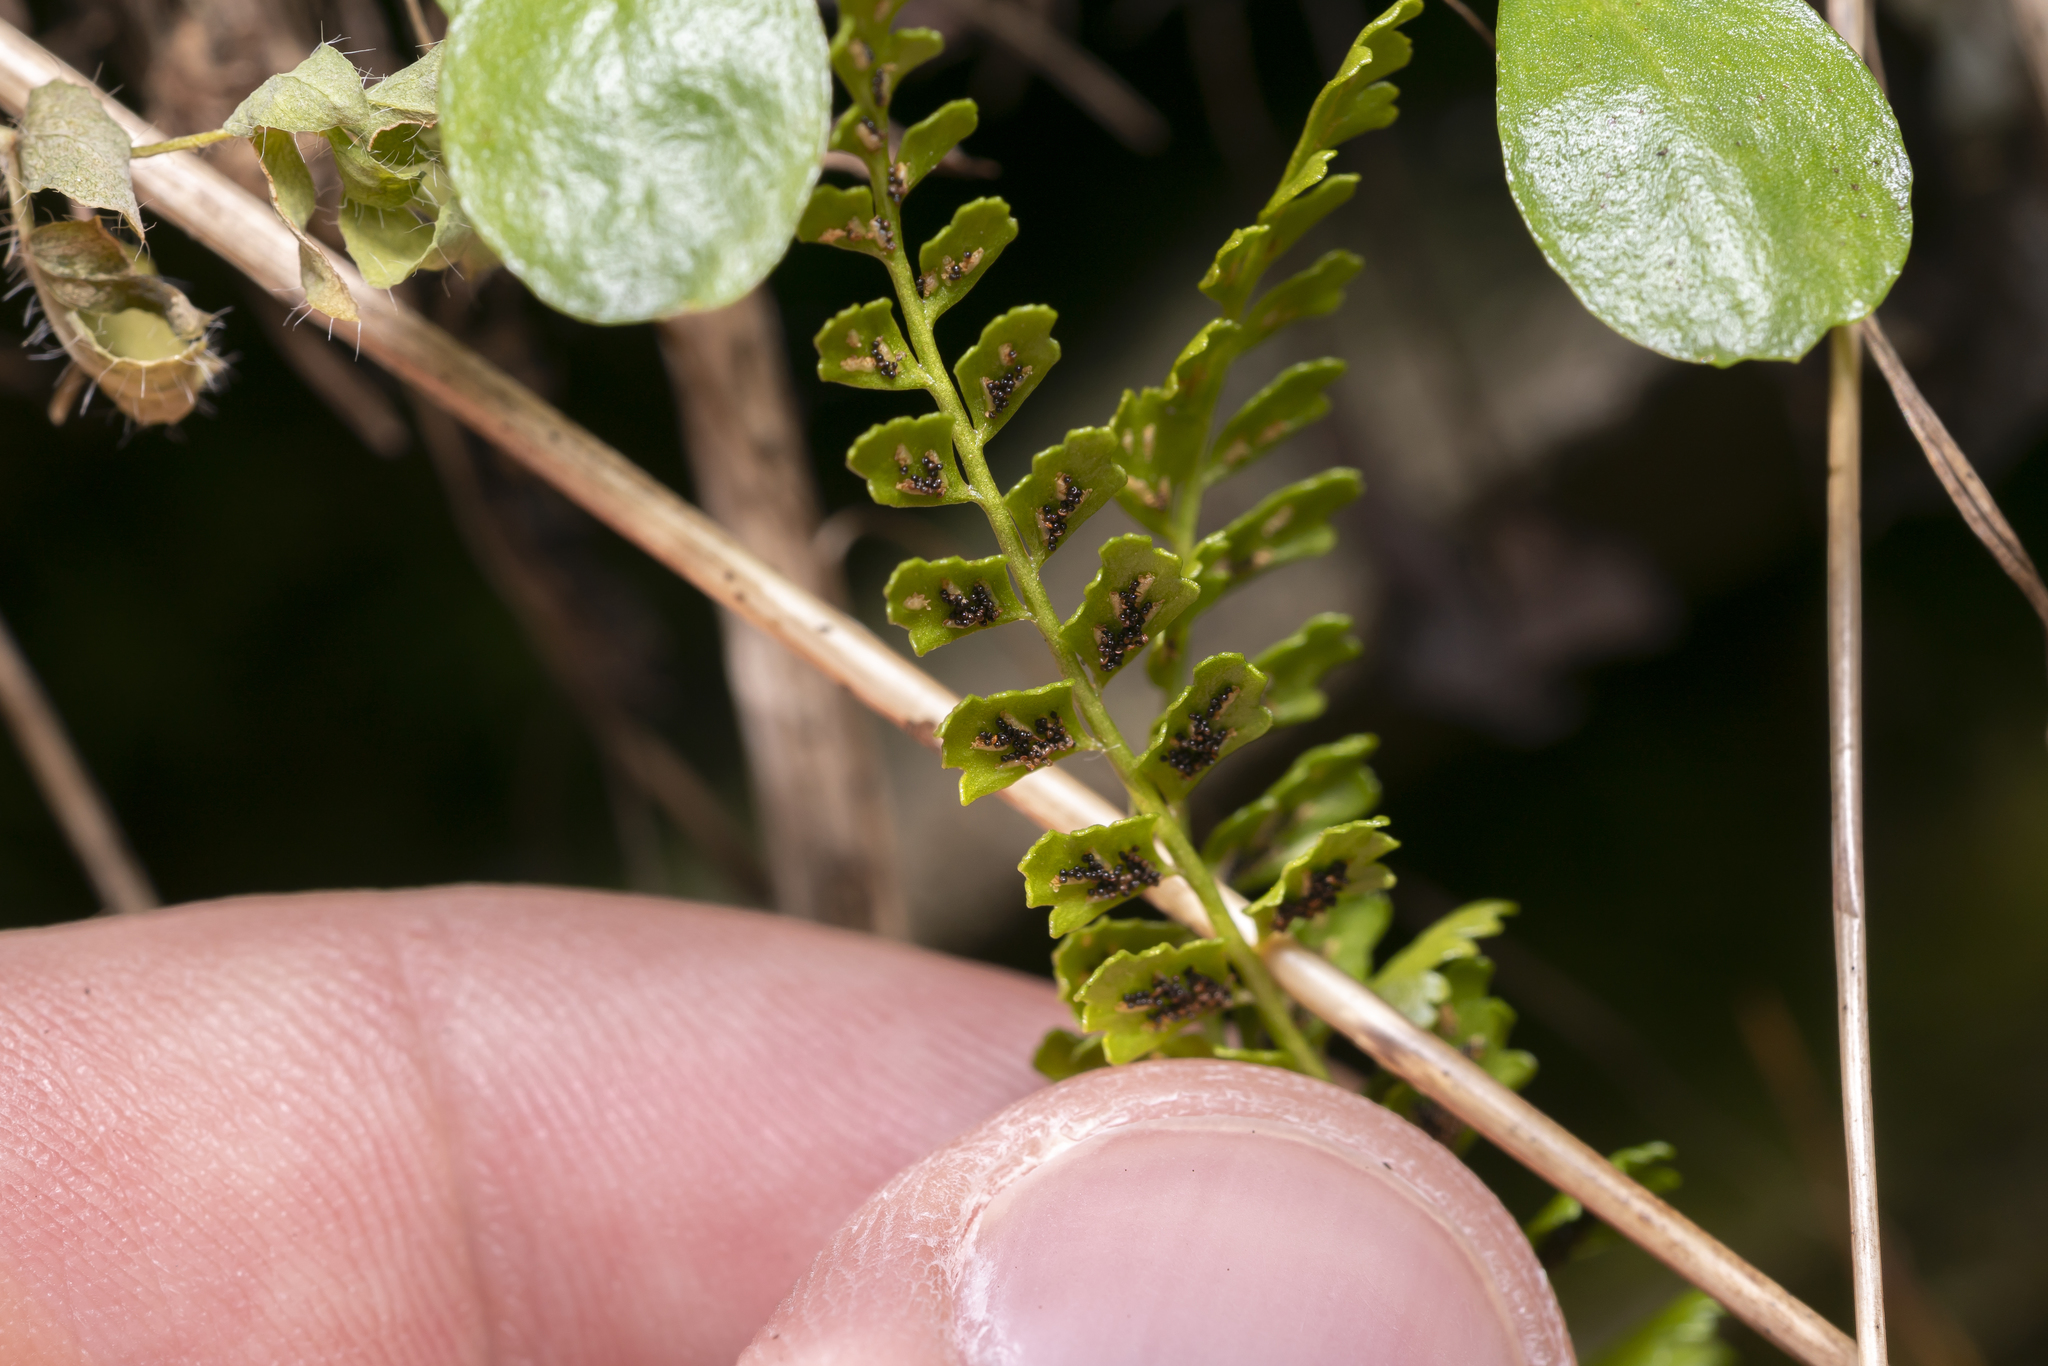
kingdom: Plantae
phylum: Tracheophyta
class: Polypodiopsida
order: Polypodiales
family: Aspleniaceae
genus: Asplenium
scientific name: Asplenium viride
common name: Green spleenwort
